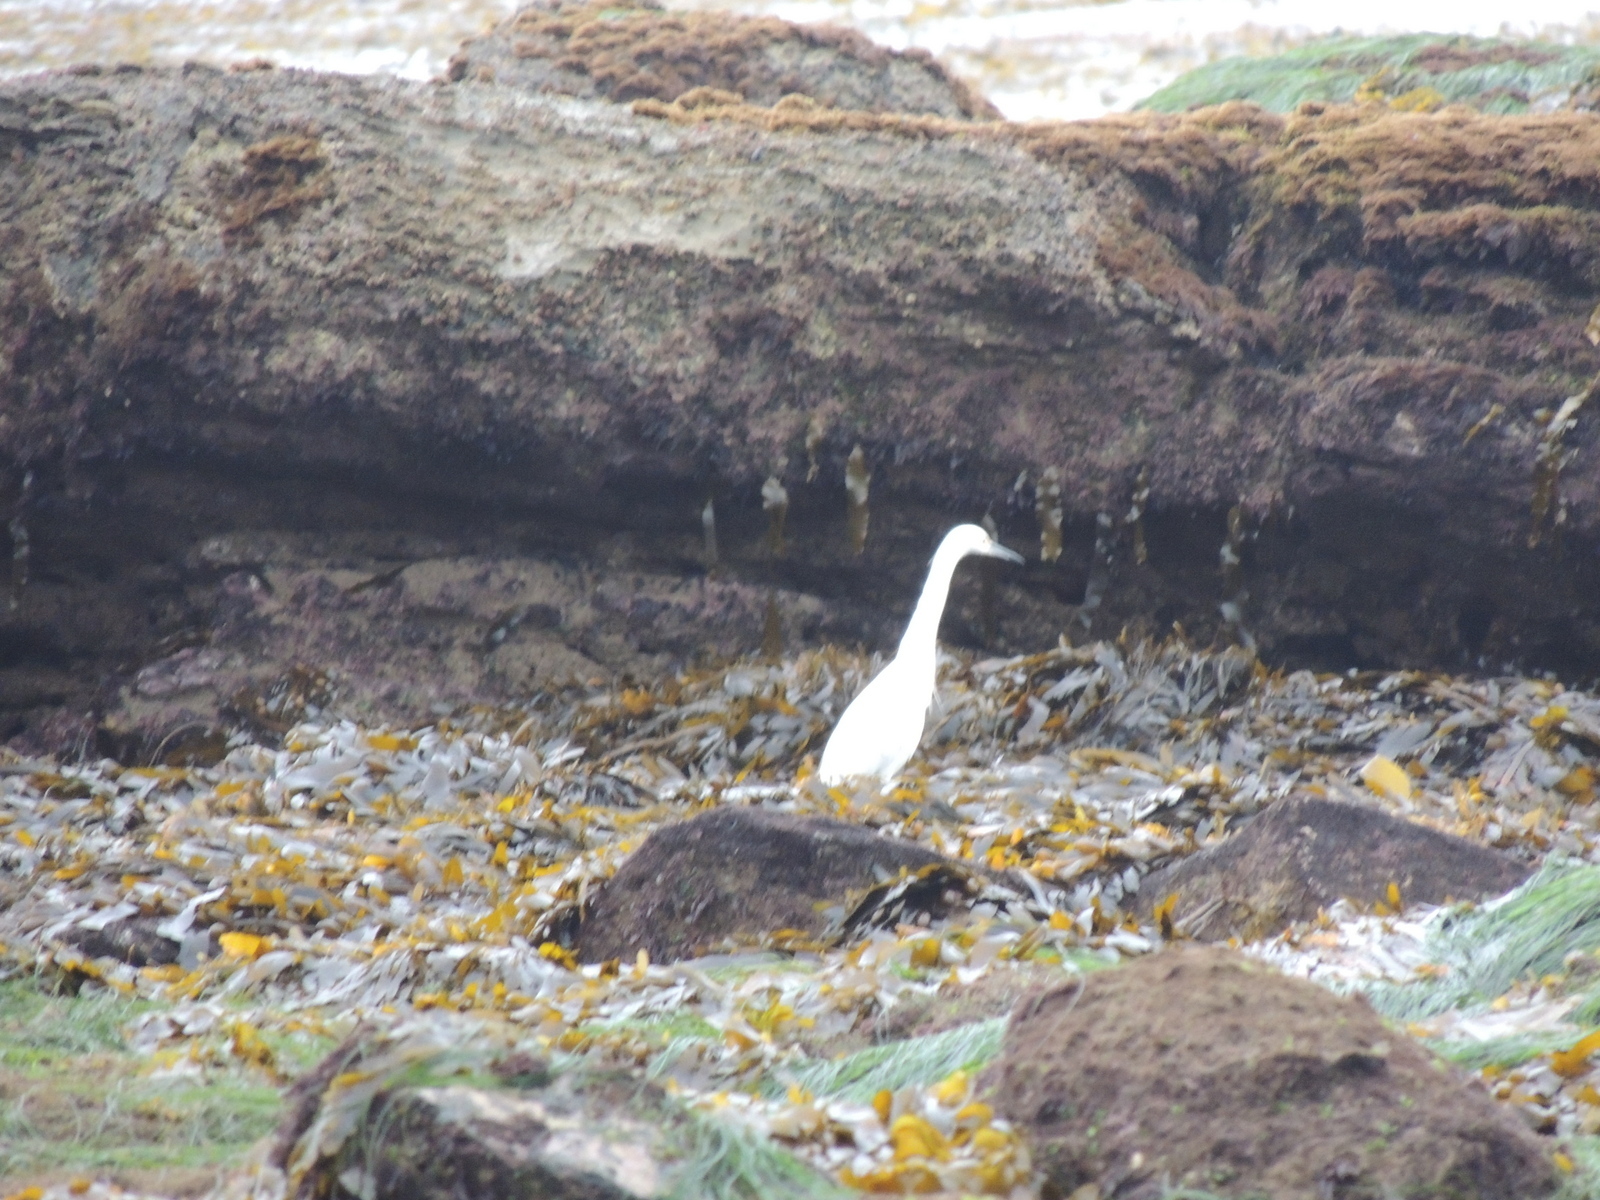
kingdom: Animalia
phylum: Chordata
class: Aves
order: Pelecaniformes
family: Ardeidae
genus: Egretta
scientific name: Egretta thula
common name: Snowy egret
